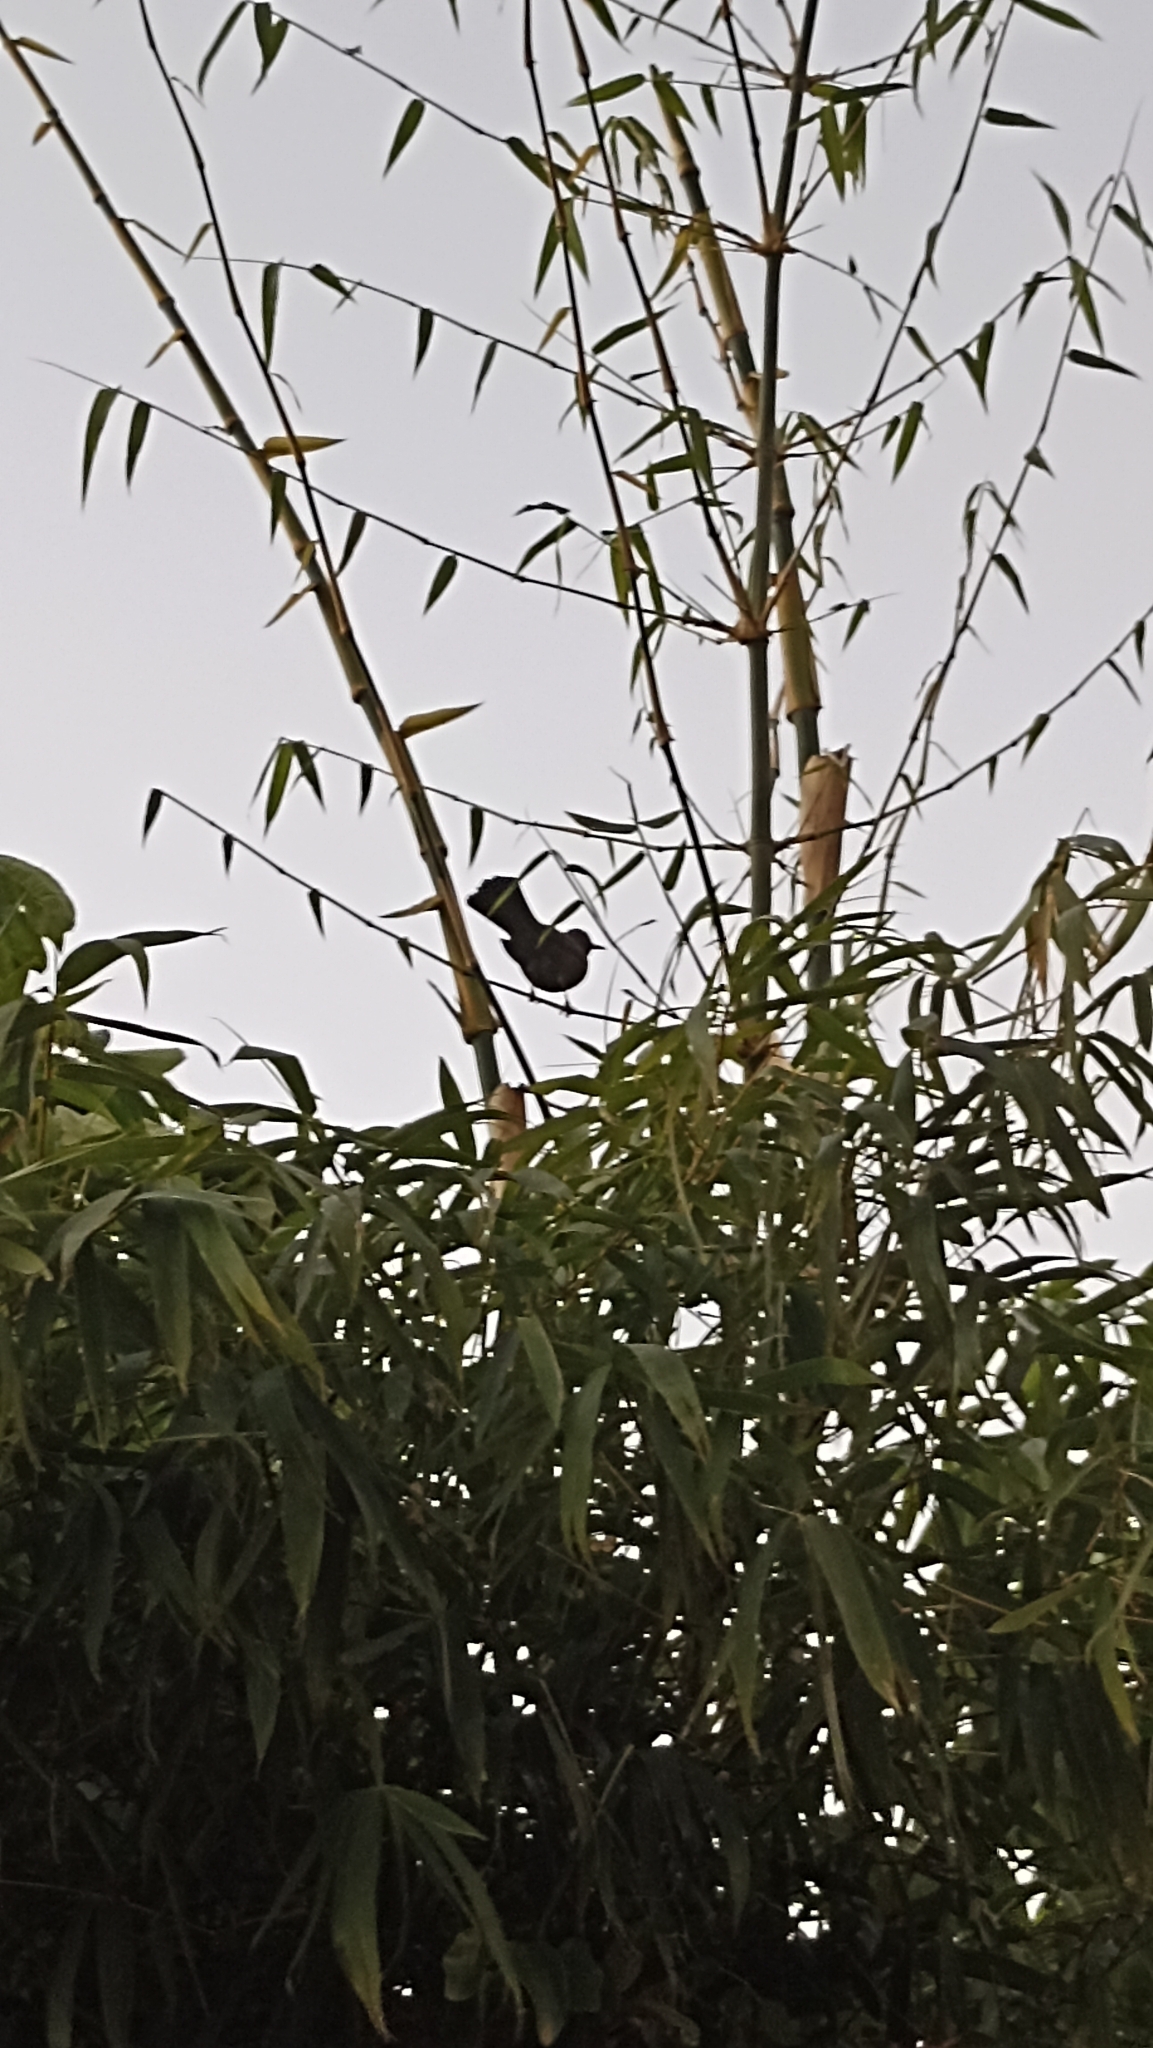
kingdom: Animalia
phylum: Chordata
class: Aves
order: Passeriformes
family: Turdidae
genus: Turdus
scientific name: Turdus merula
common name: Common blackbird
